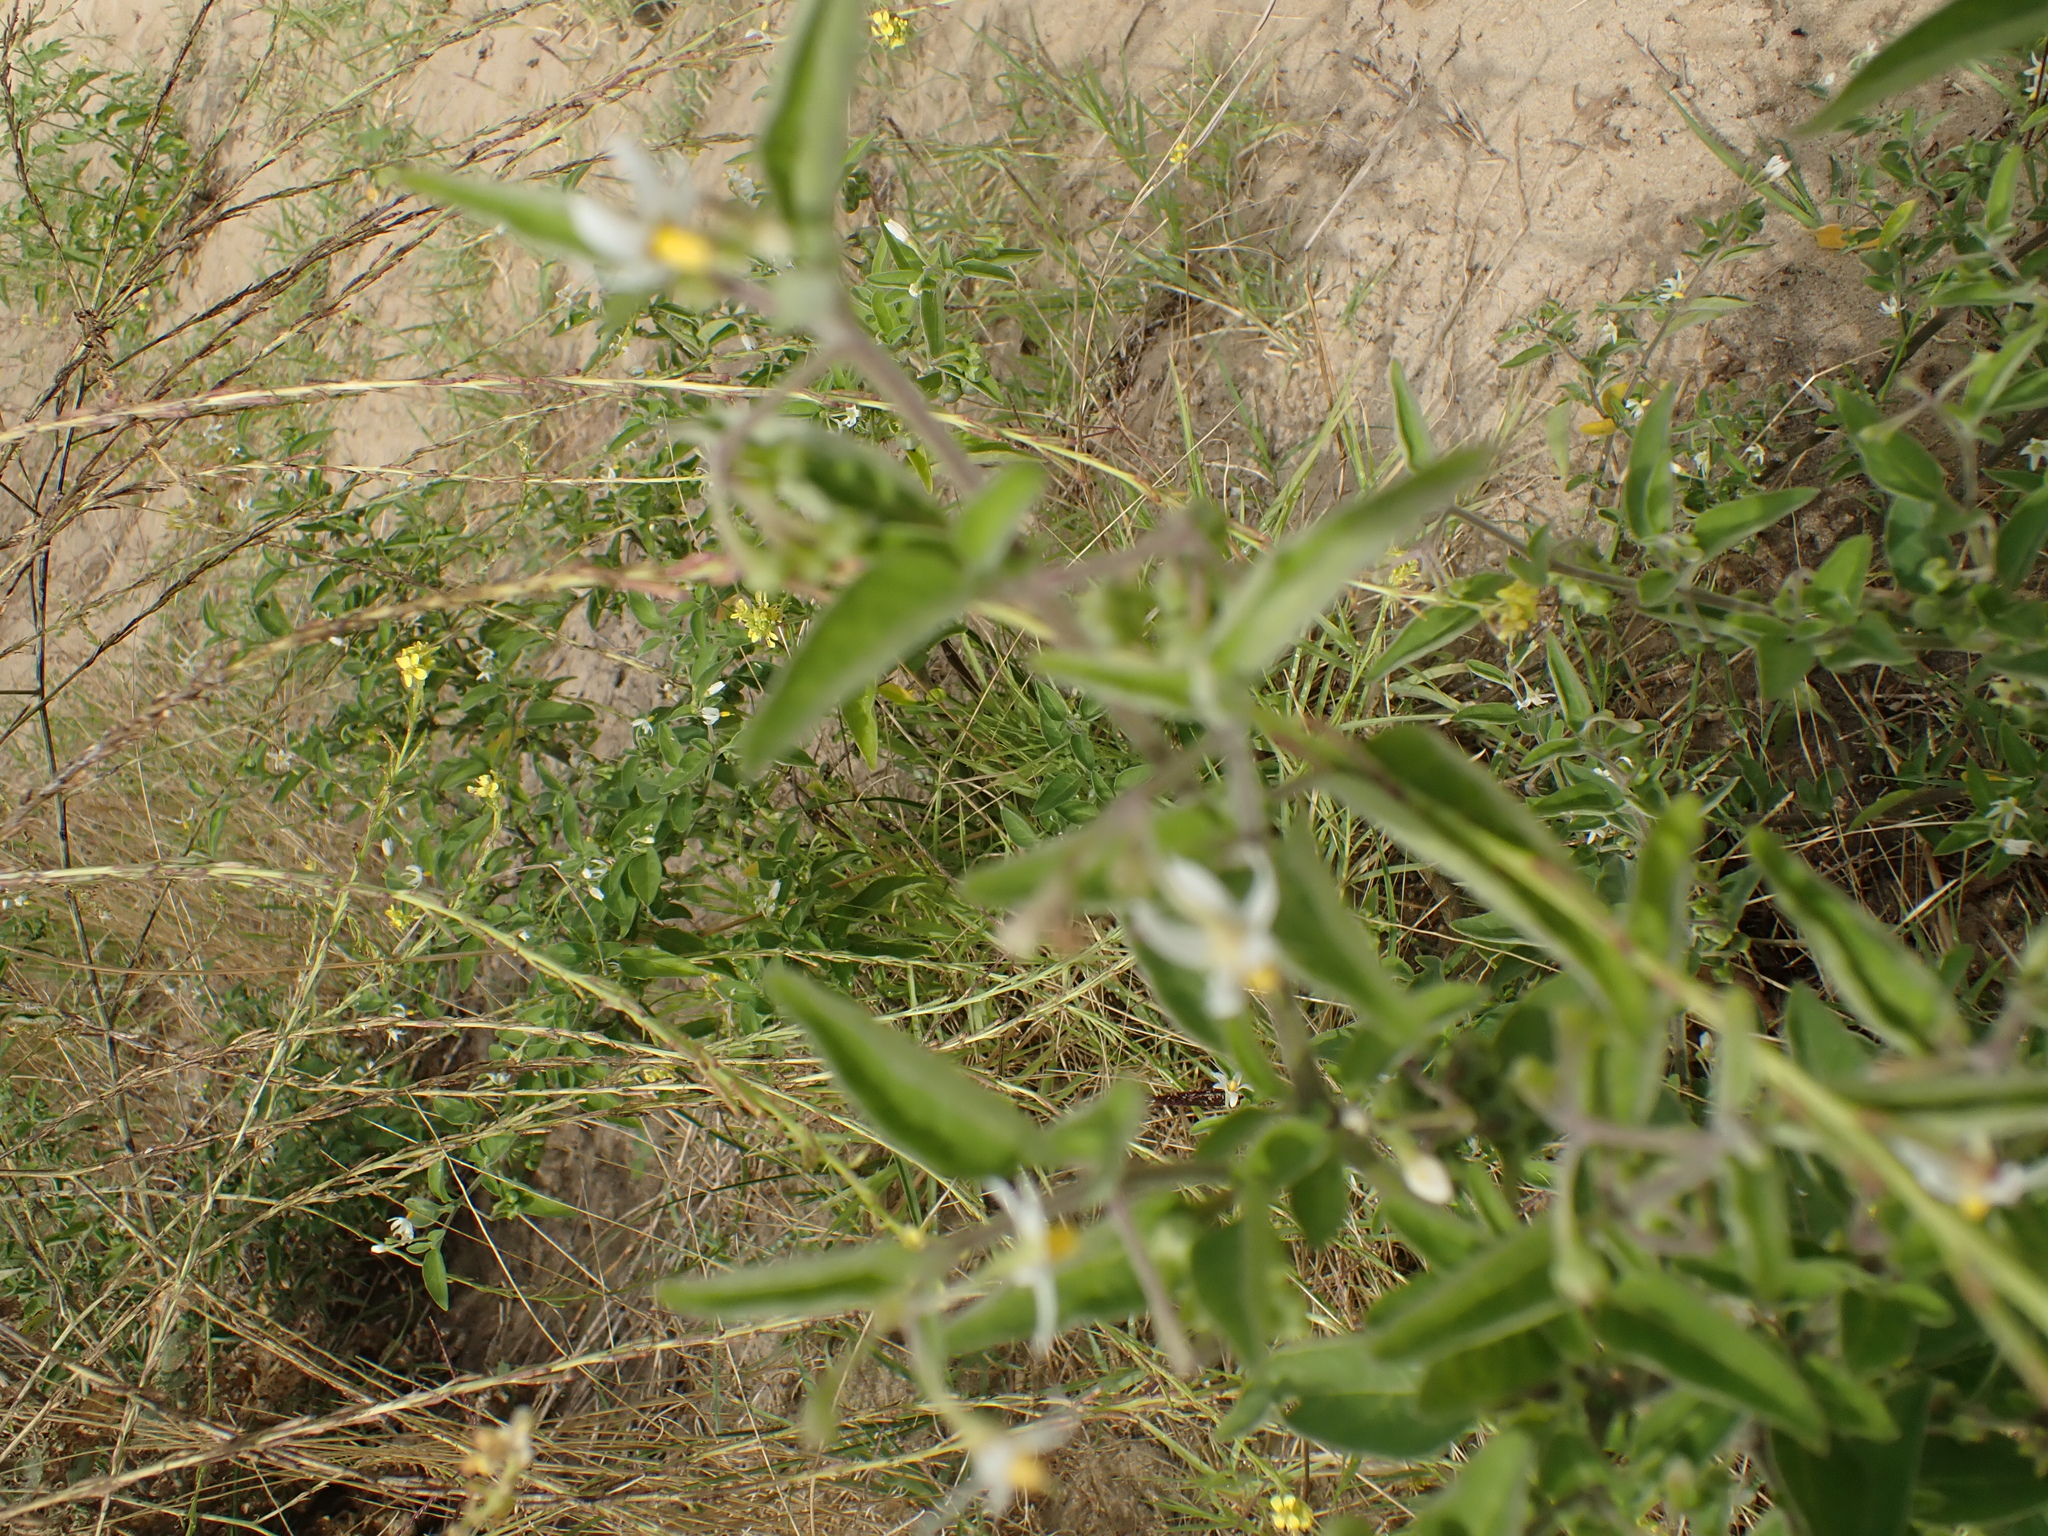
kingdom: Plantae
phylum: Tracheophyta
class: Magnoliopsida
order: Solanales
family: Solanaceae
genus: Solanum
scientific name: Solanum chenopodioides
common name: Tall nightshade
